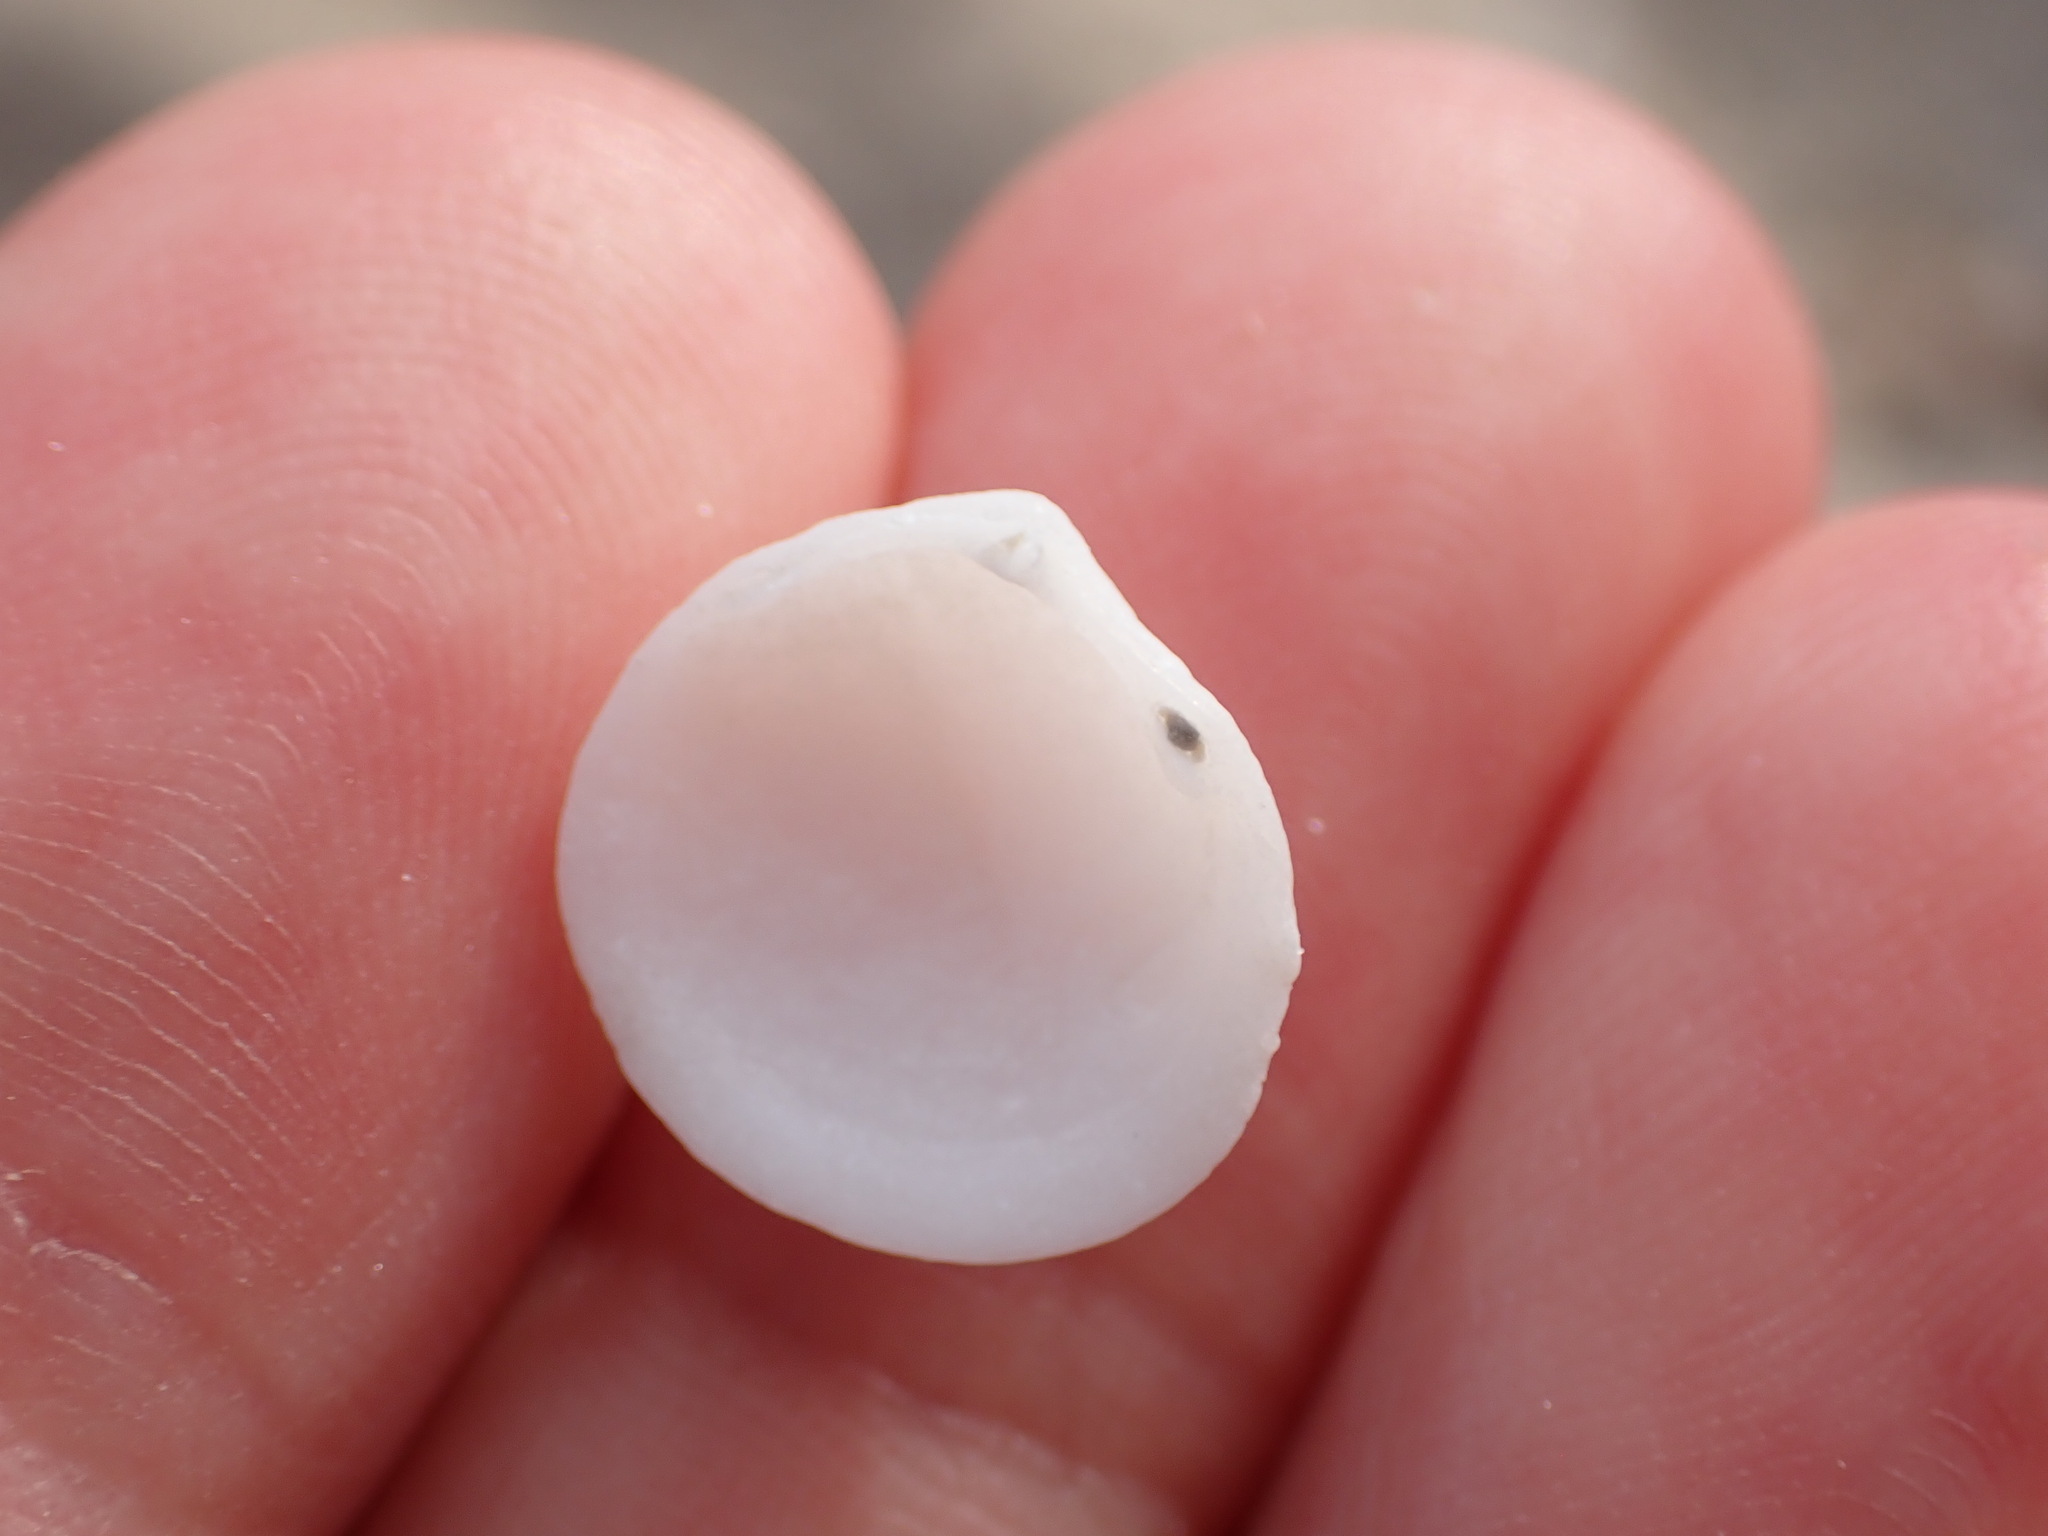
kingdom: Animalia
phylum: Mollusca
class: Bivalvia
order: Lucinida
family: Lucinidae
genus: Ctena
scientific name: Ctena decussata
